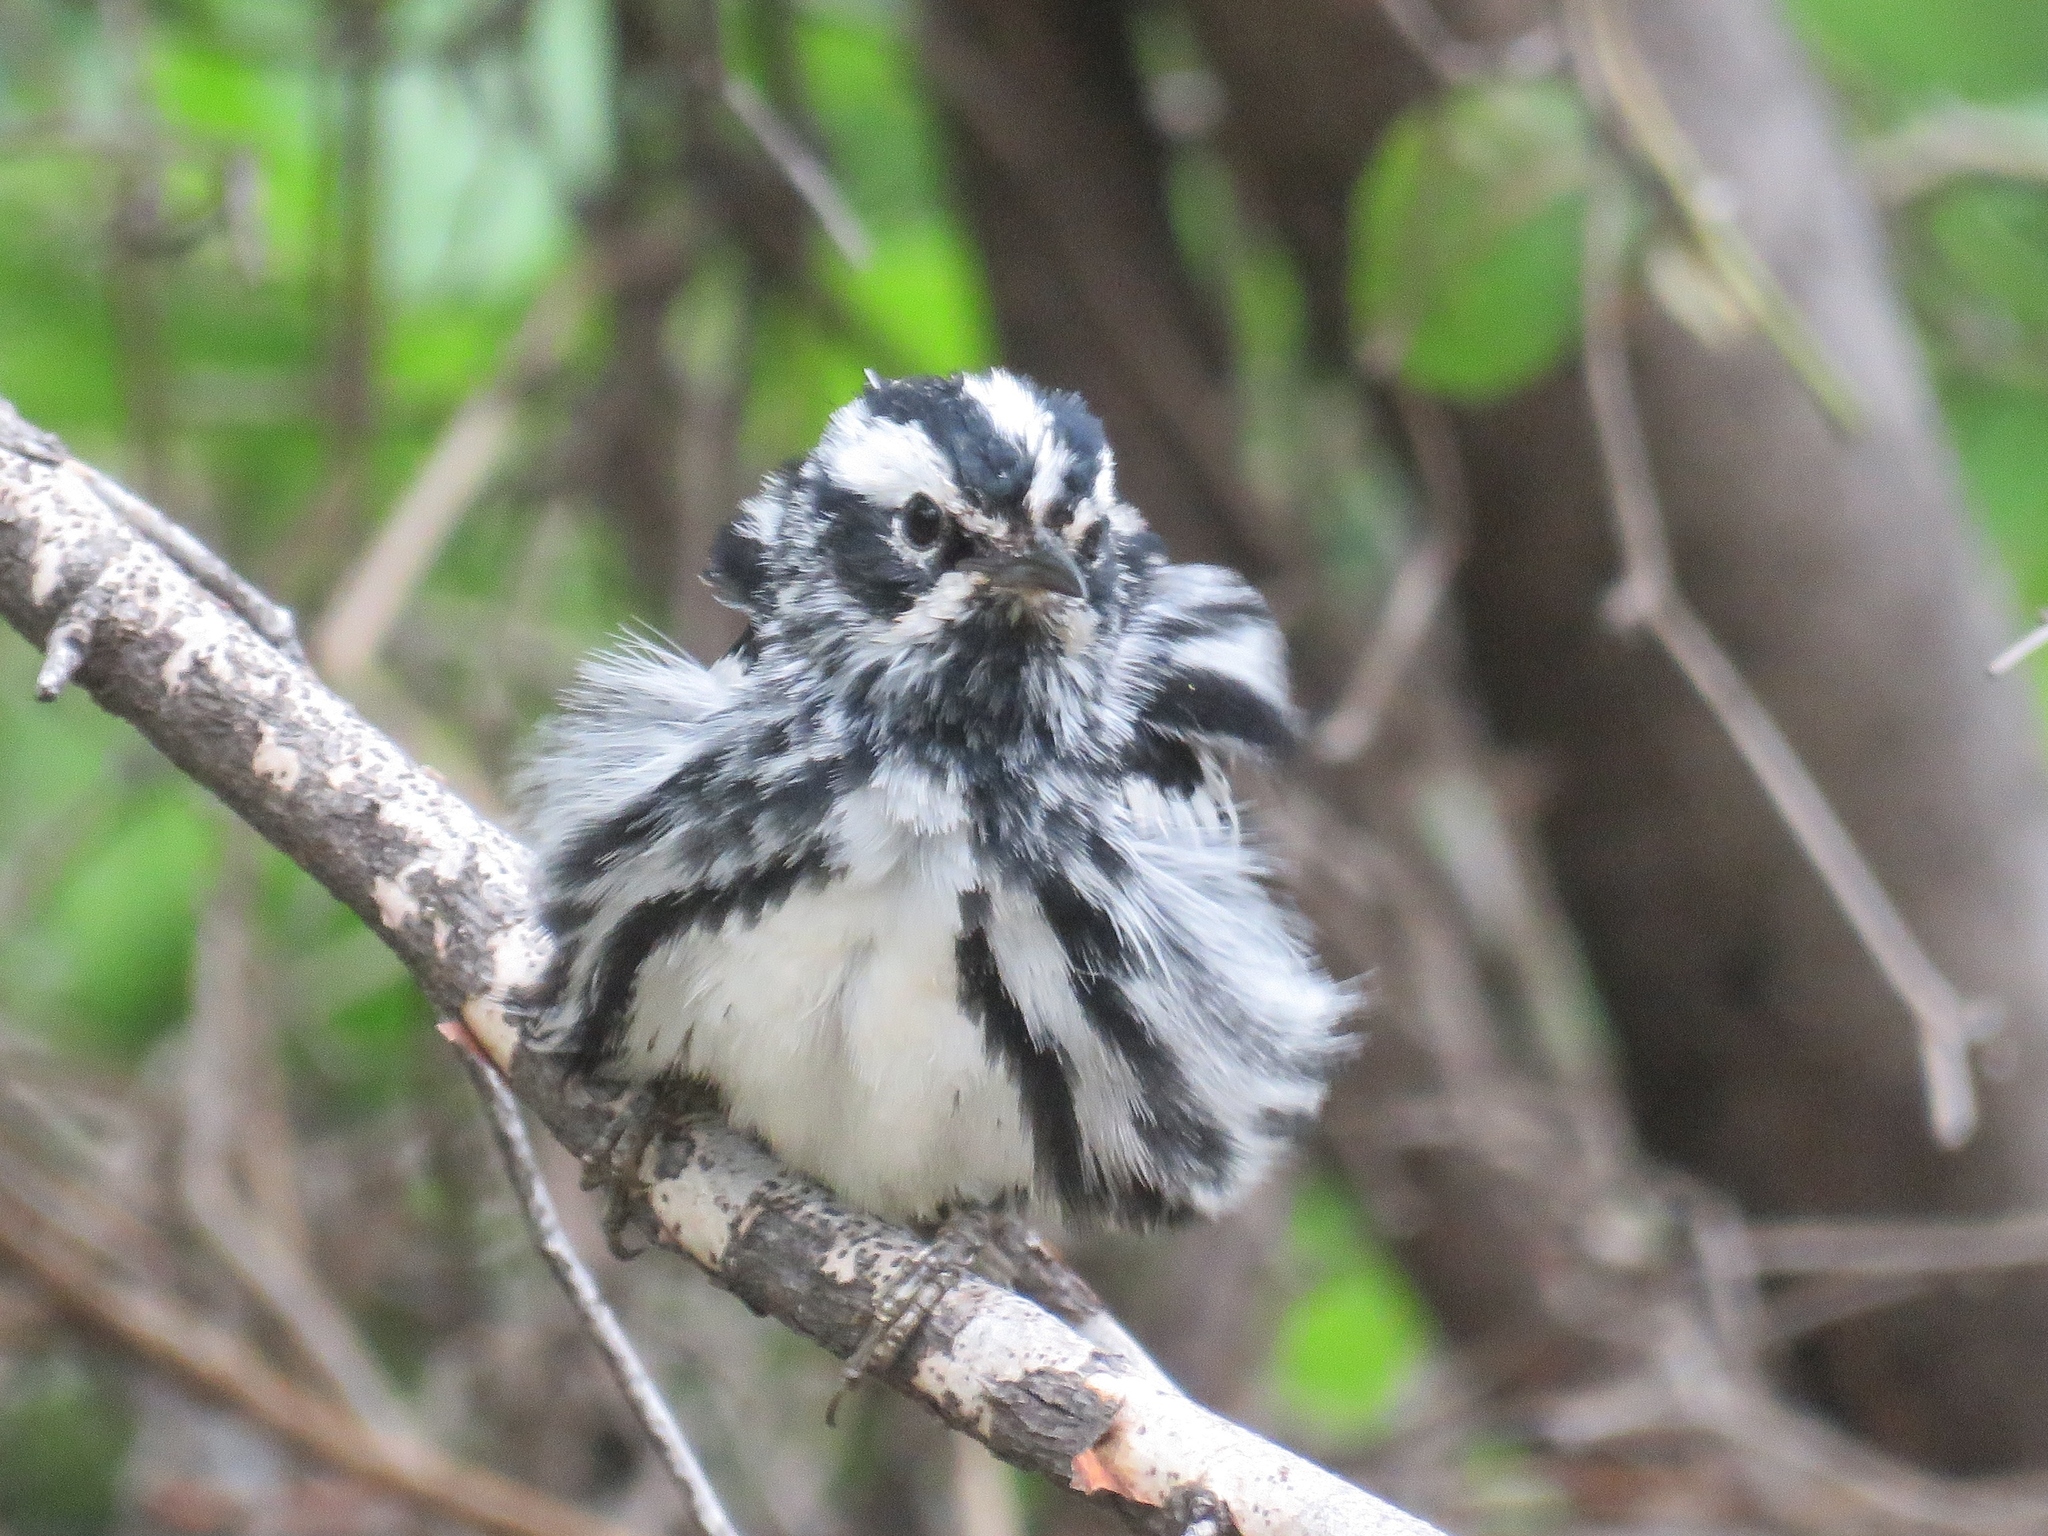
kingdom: Animalia
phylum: Chordata
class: Aves
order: Passeriformes
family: Parulidae
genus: Mniotilta
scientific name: Mniotilta varia
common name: Black-and-white warbler
